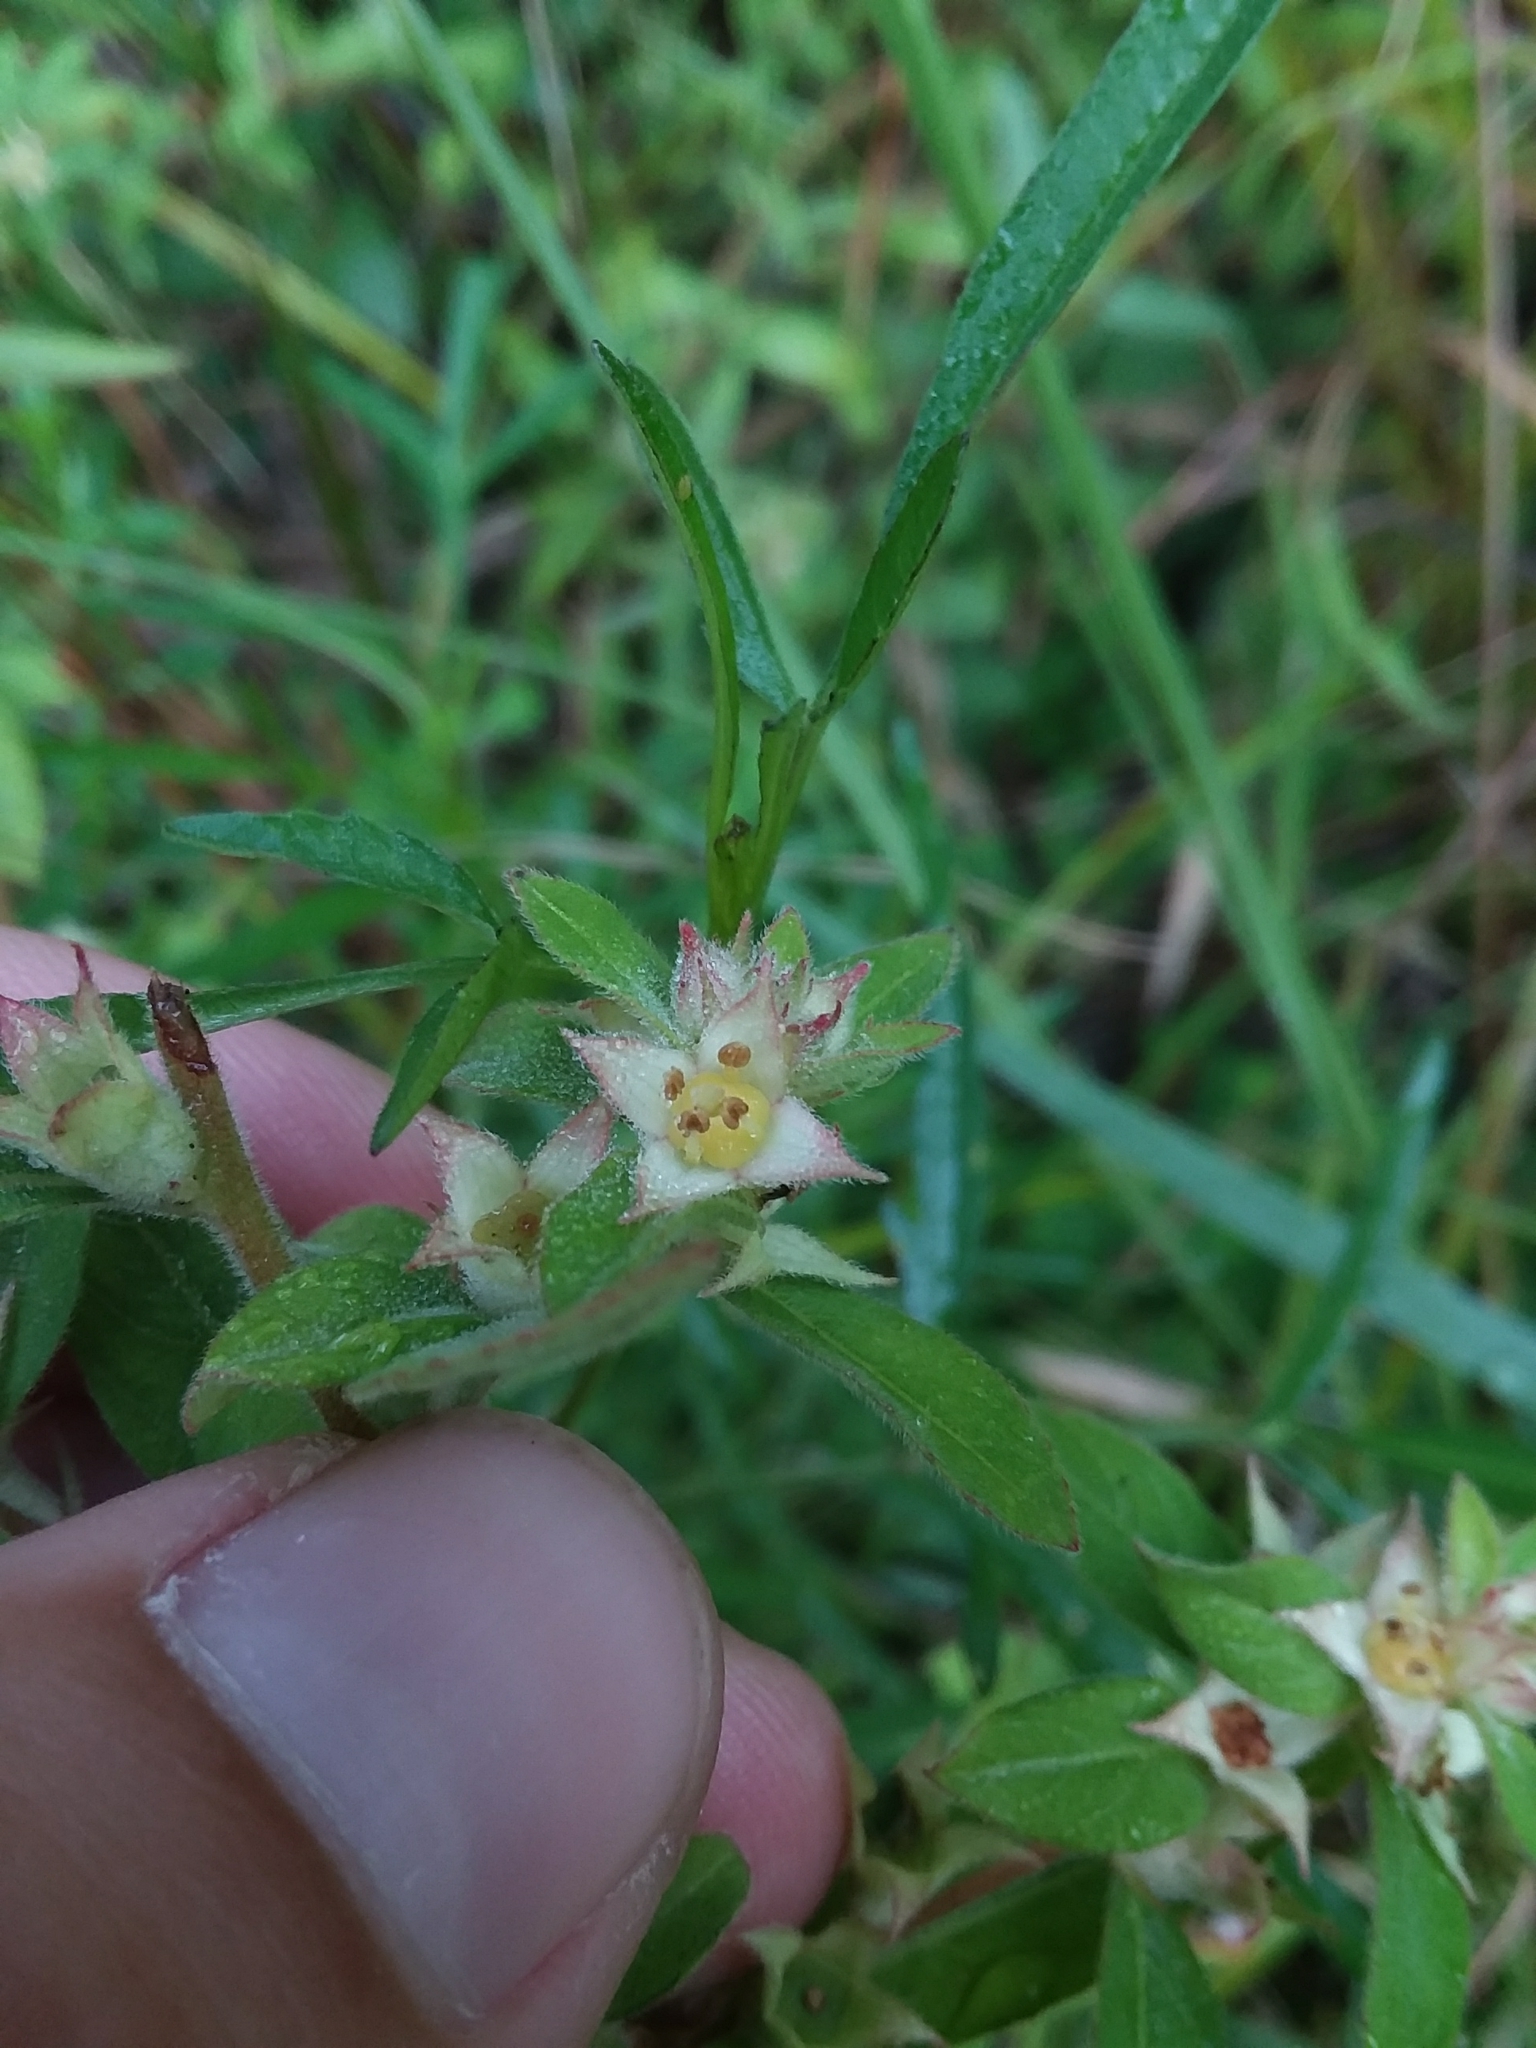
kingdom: Plantae
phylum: Tracheophyta
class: Magnoliopsida
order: Myrtales
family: Onagraceae
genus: Ludwigia
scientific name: Ludwigia pilosa
